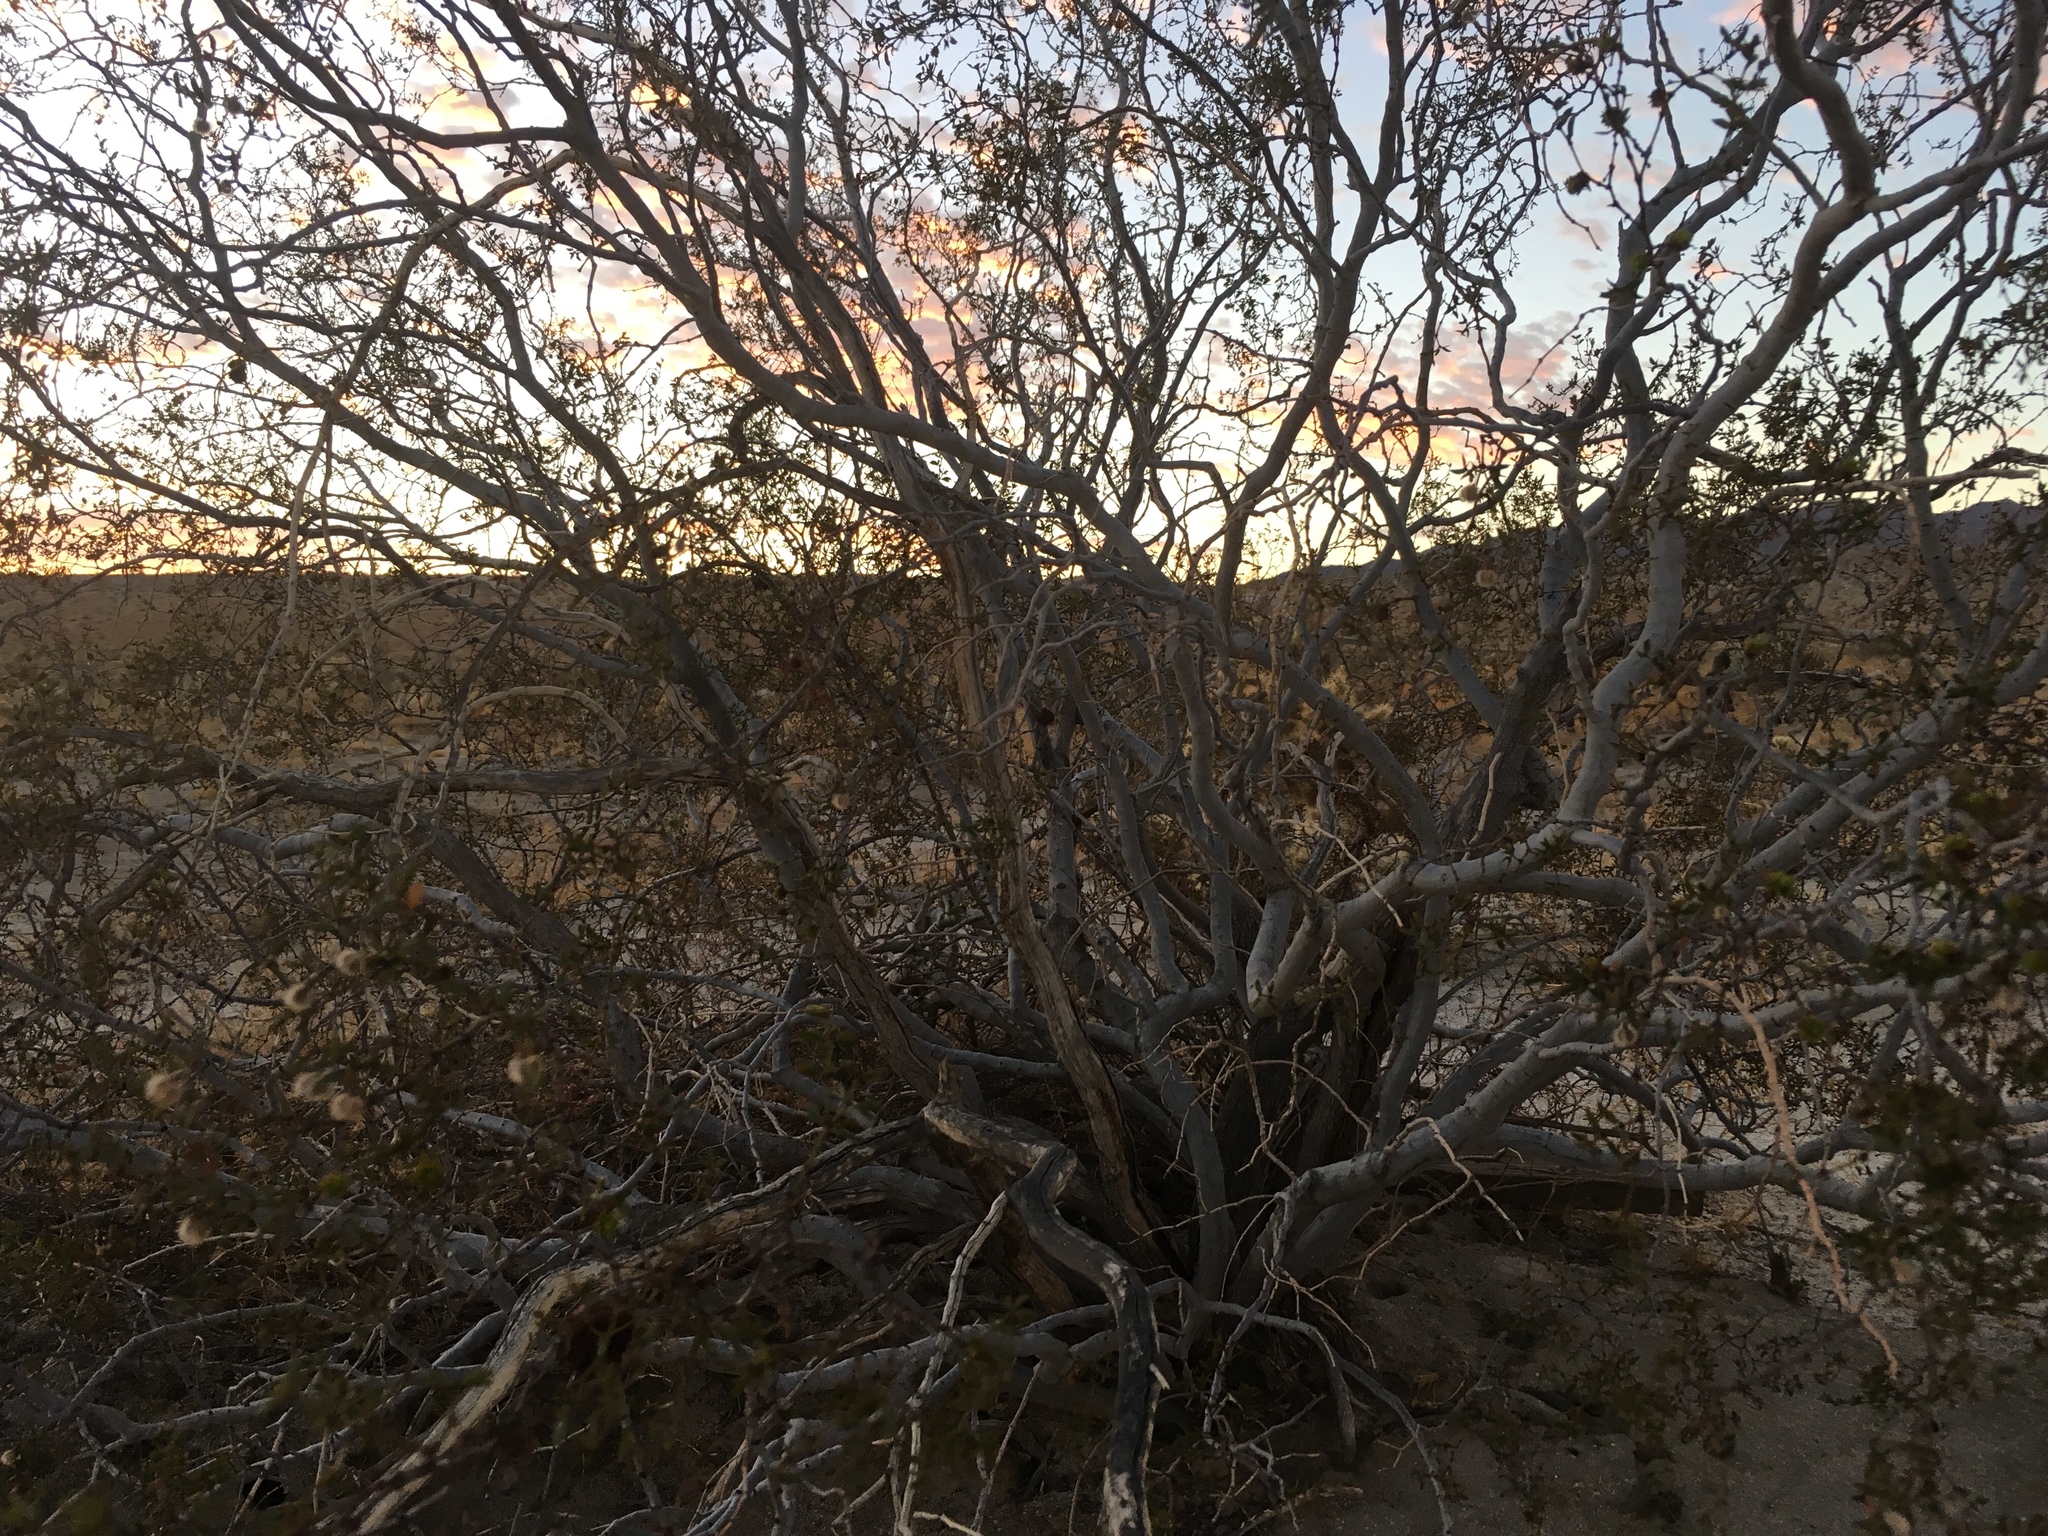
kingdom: Plantae
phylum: Tracheophyta
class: Magnoliopsida
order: Zygophyllales
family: Zygophyllaceae
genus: Larrea
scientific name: Larrea tridentata
